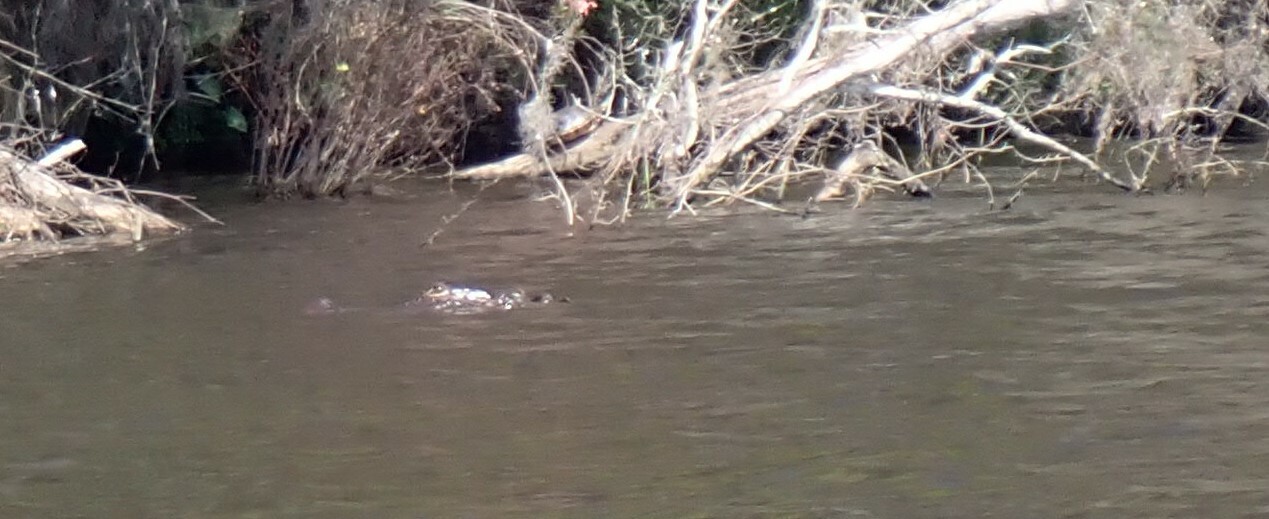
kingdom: Animalia
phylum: Chordata
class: Crocodylia
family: Alligatoridae
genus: Alligator
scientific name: Alligator mississippiensis
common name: American alligator
